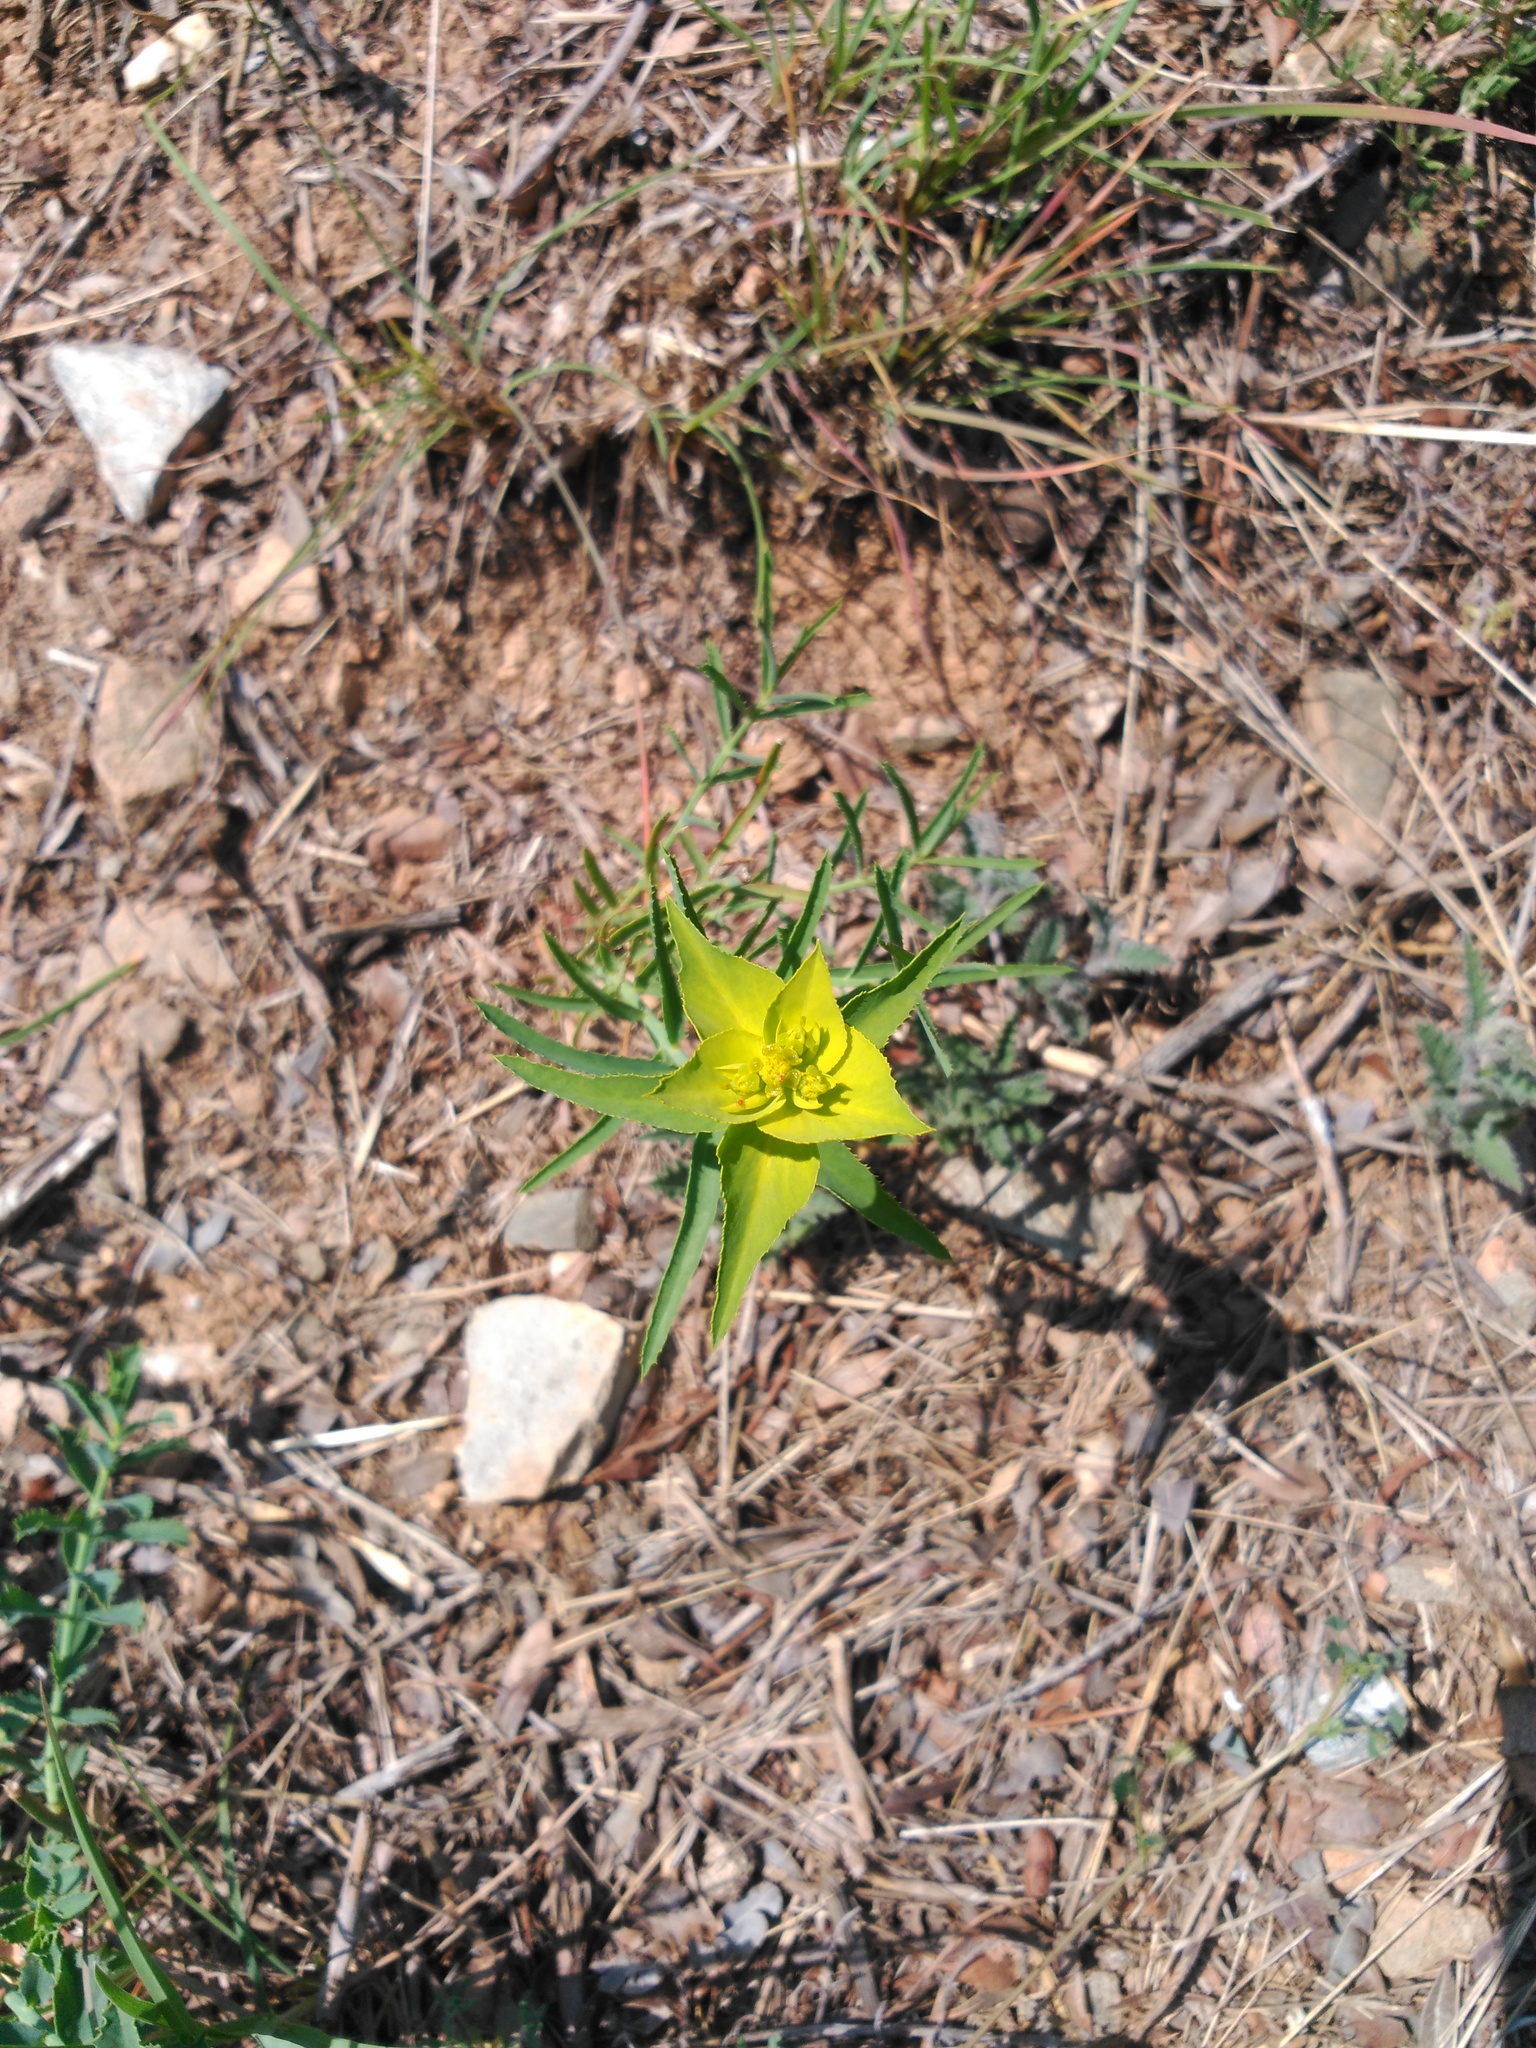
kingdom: Plantae
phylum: Tracheophyta
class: Magnoliopsida
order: Malpighiales
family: Euphorbiaceae
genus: Euphorbia
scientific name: Euphorbia serrata
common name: Serrate spurge
